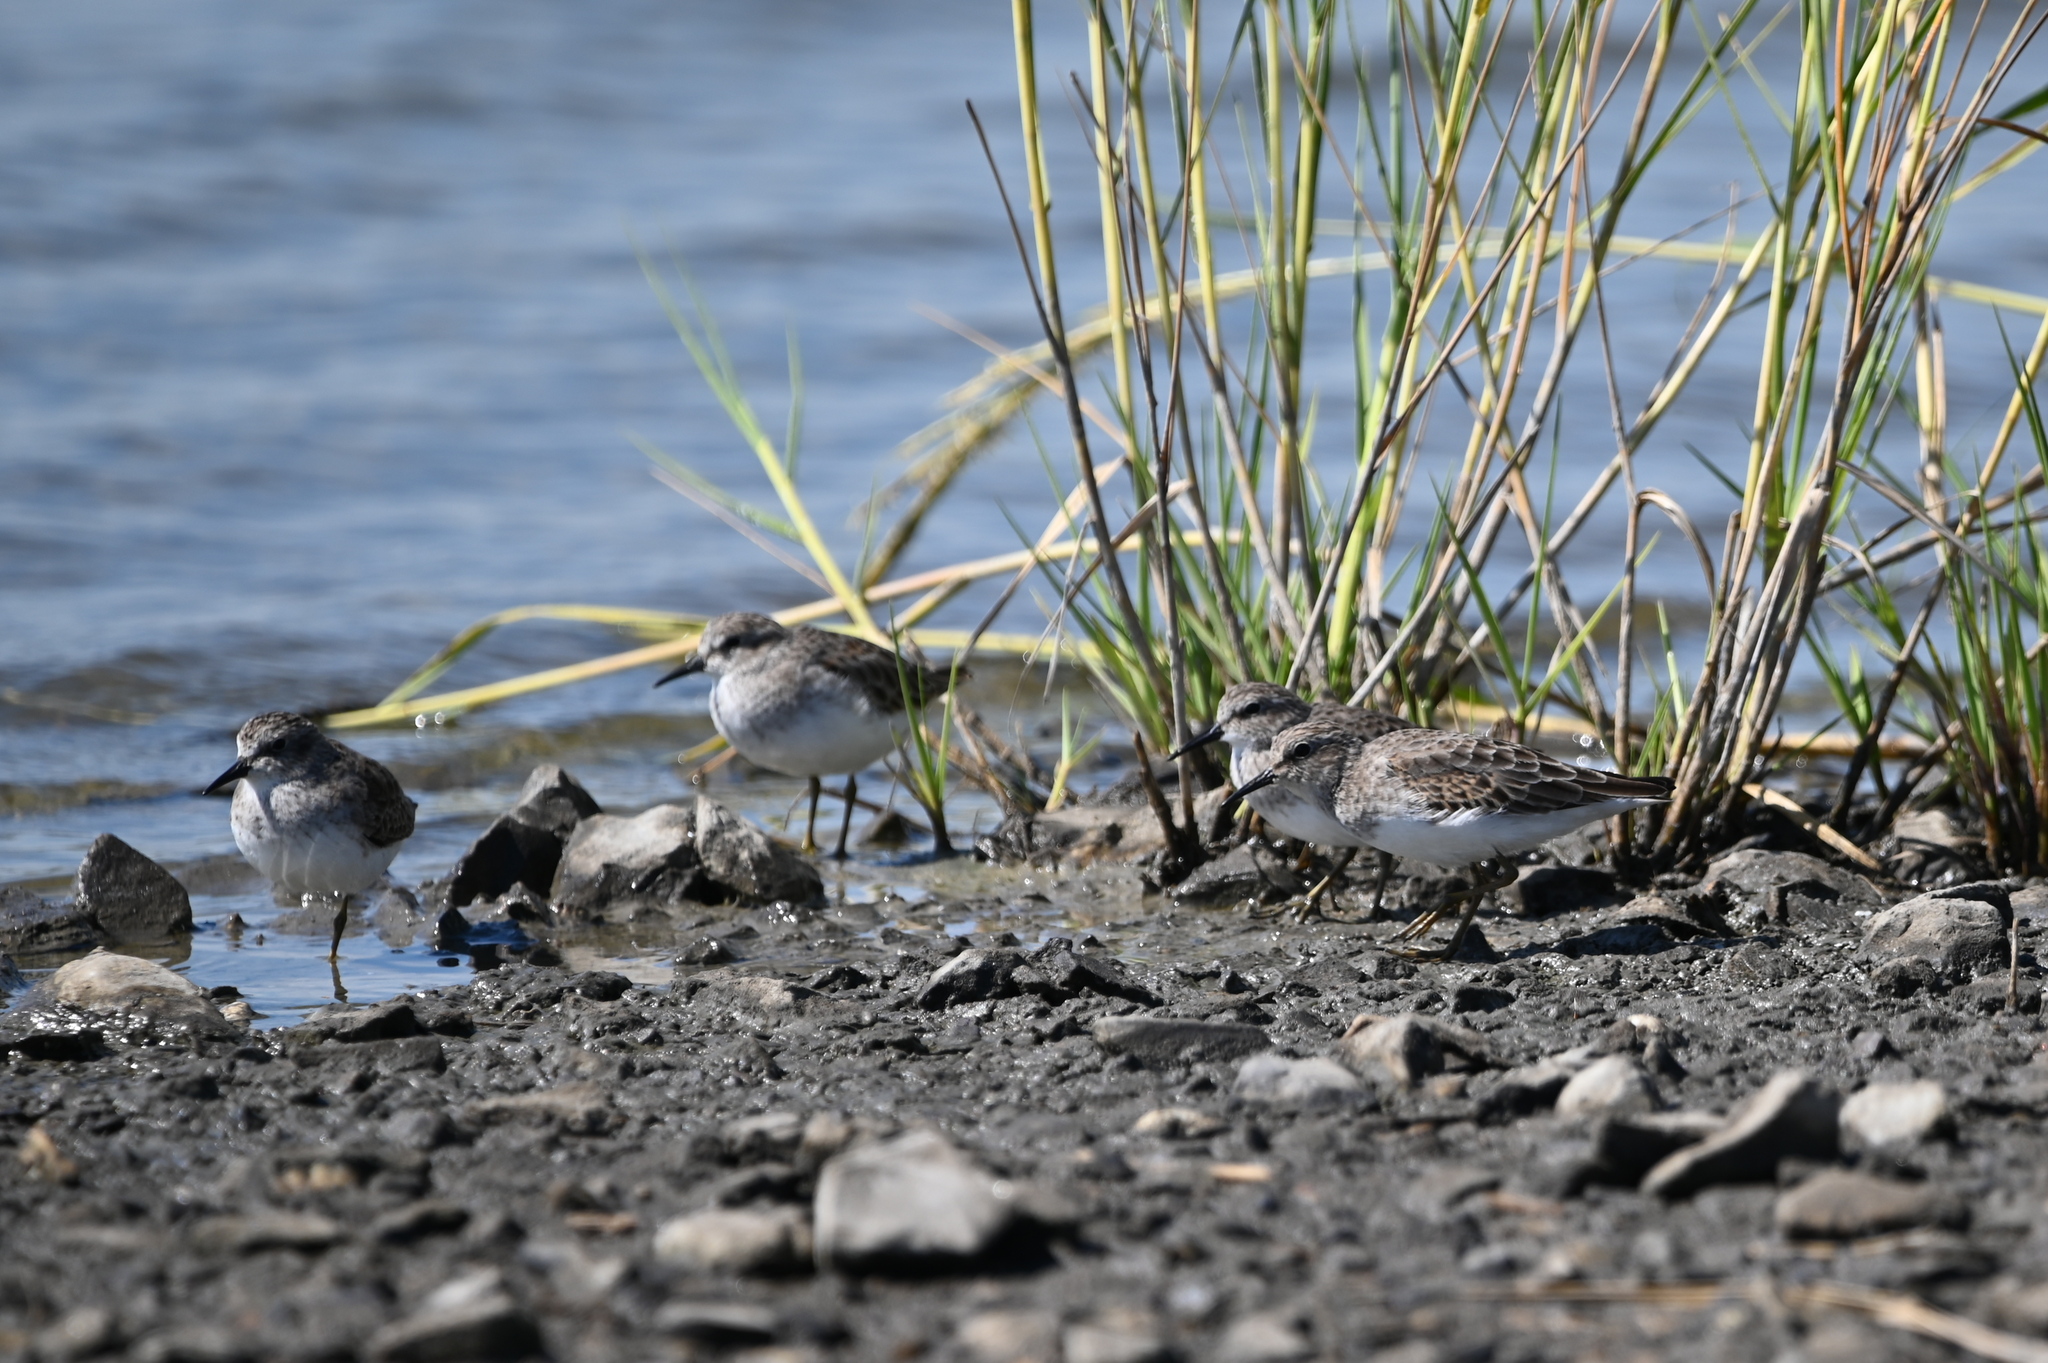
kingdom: Animalia
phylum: Chordata
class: Aves
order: Charadriiformes
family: Scolopacidae
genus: Calidris
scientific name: Calidris minutilla
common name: Least sandpiper
